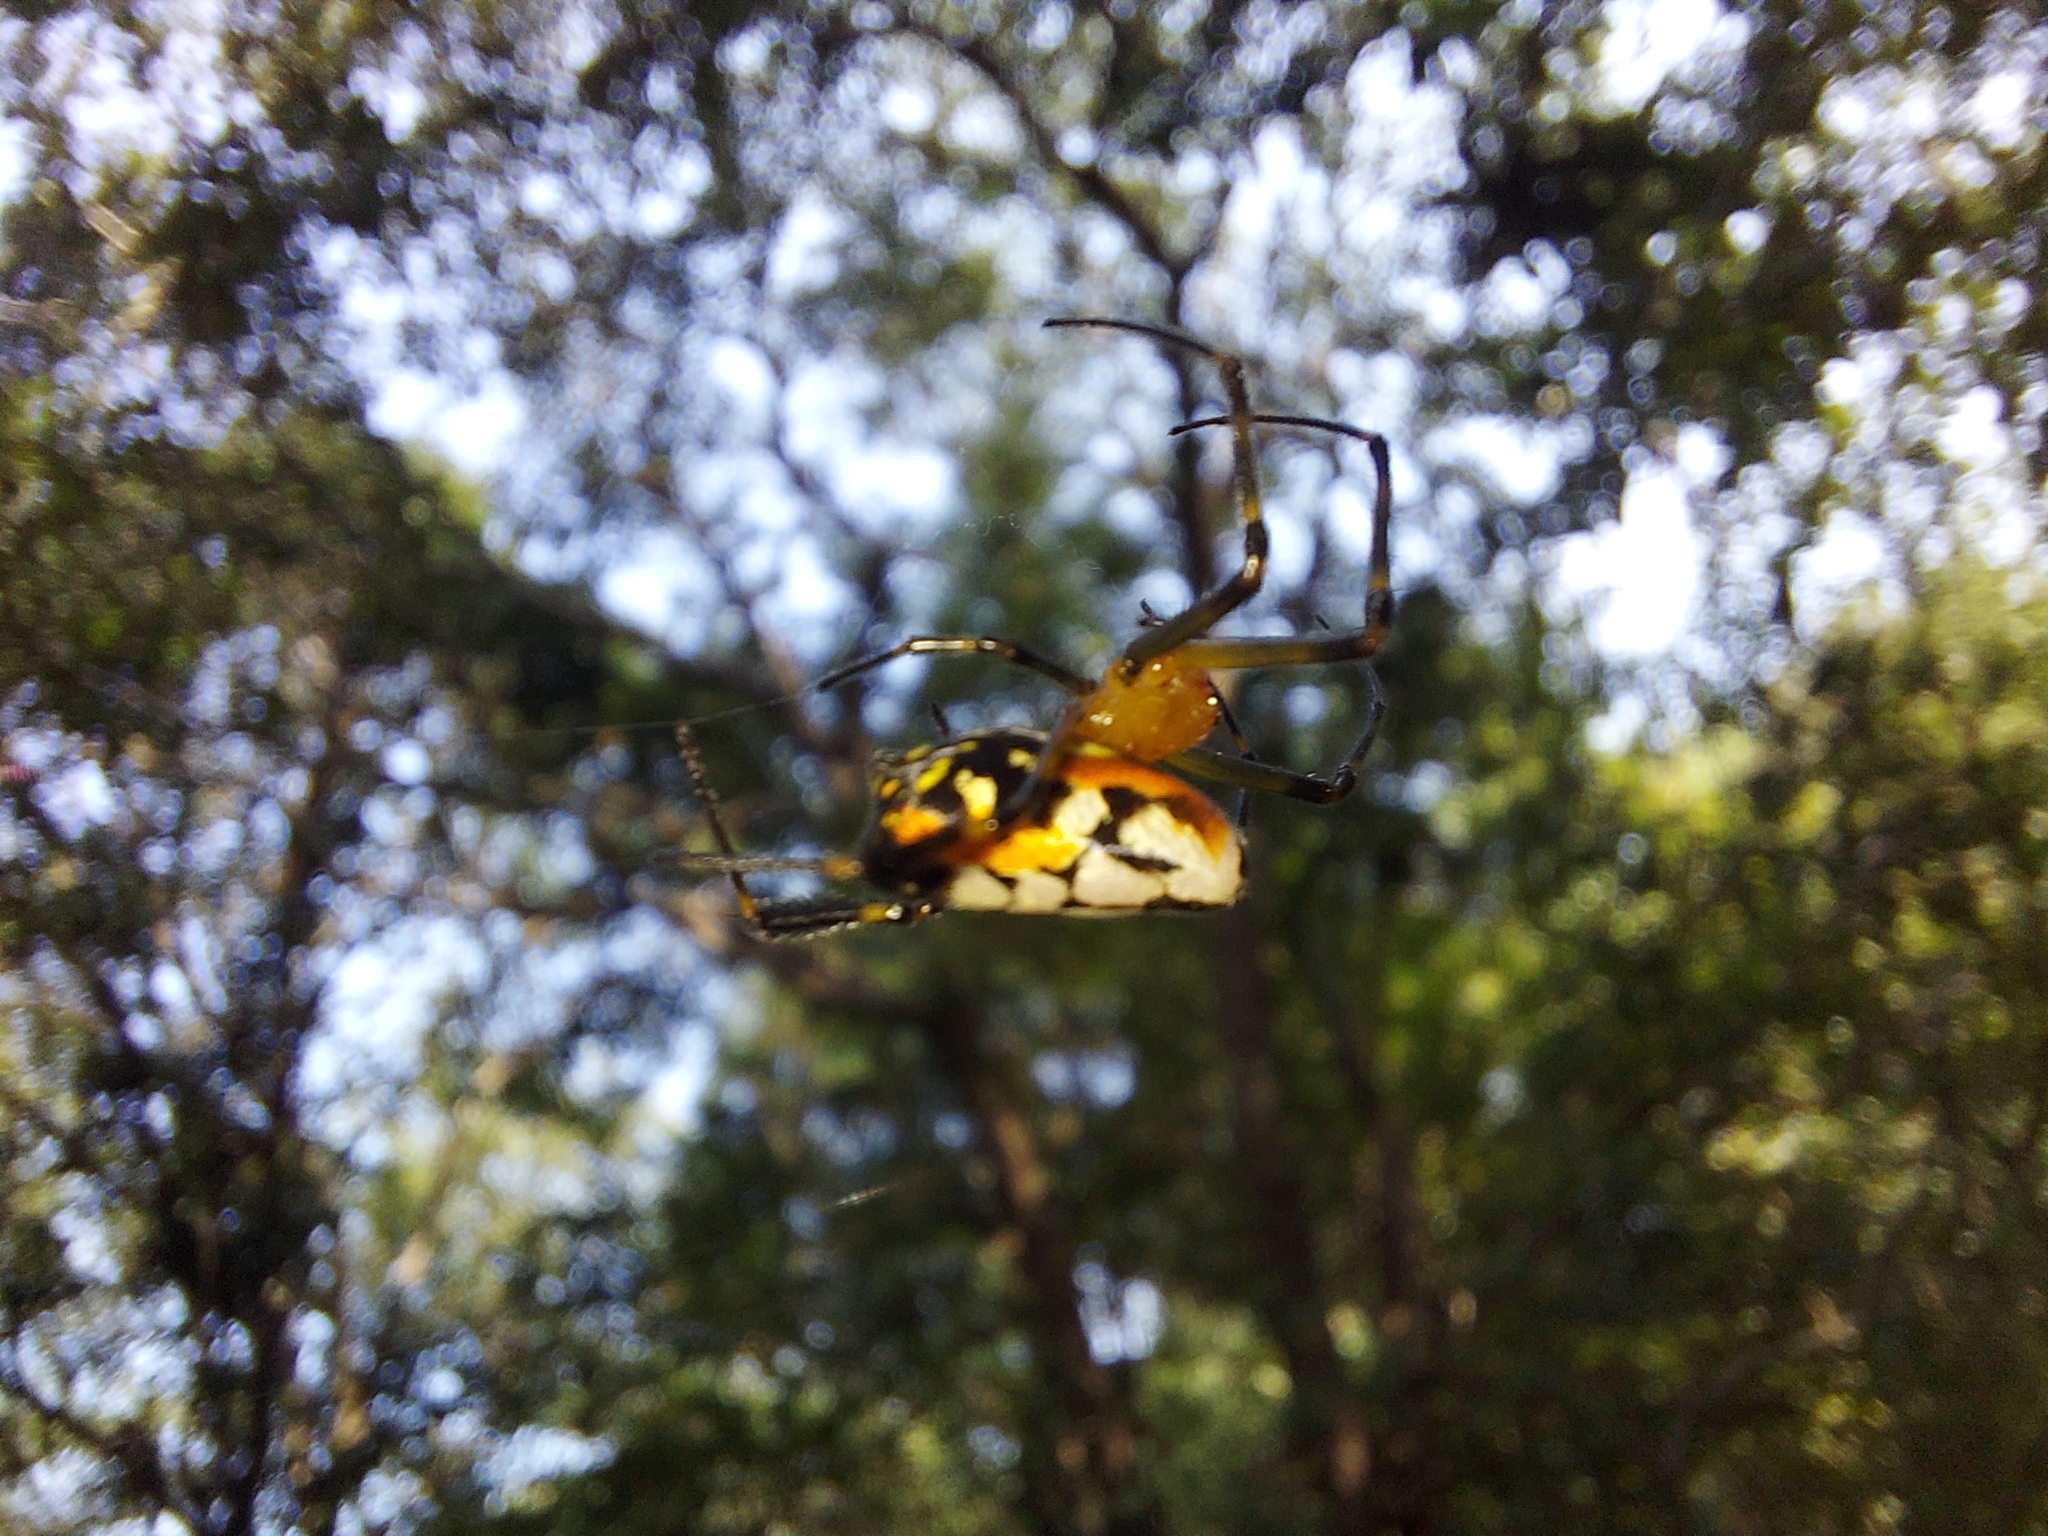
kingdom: Animalia
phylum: Arthropoda
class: Arachnida
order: Araneae
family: Tetragnathidae
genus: Leucauge
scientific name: Leucauge fastigata
